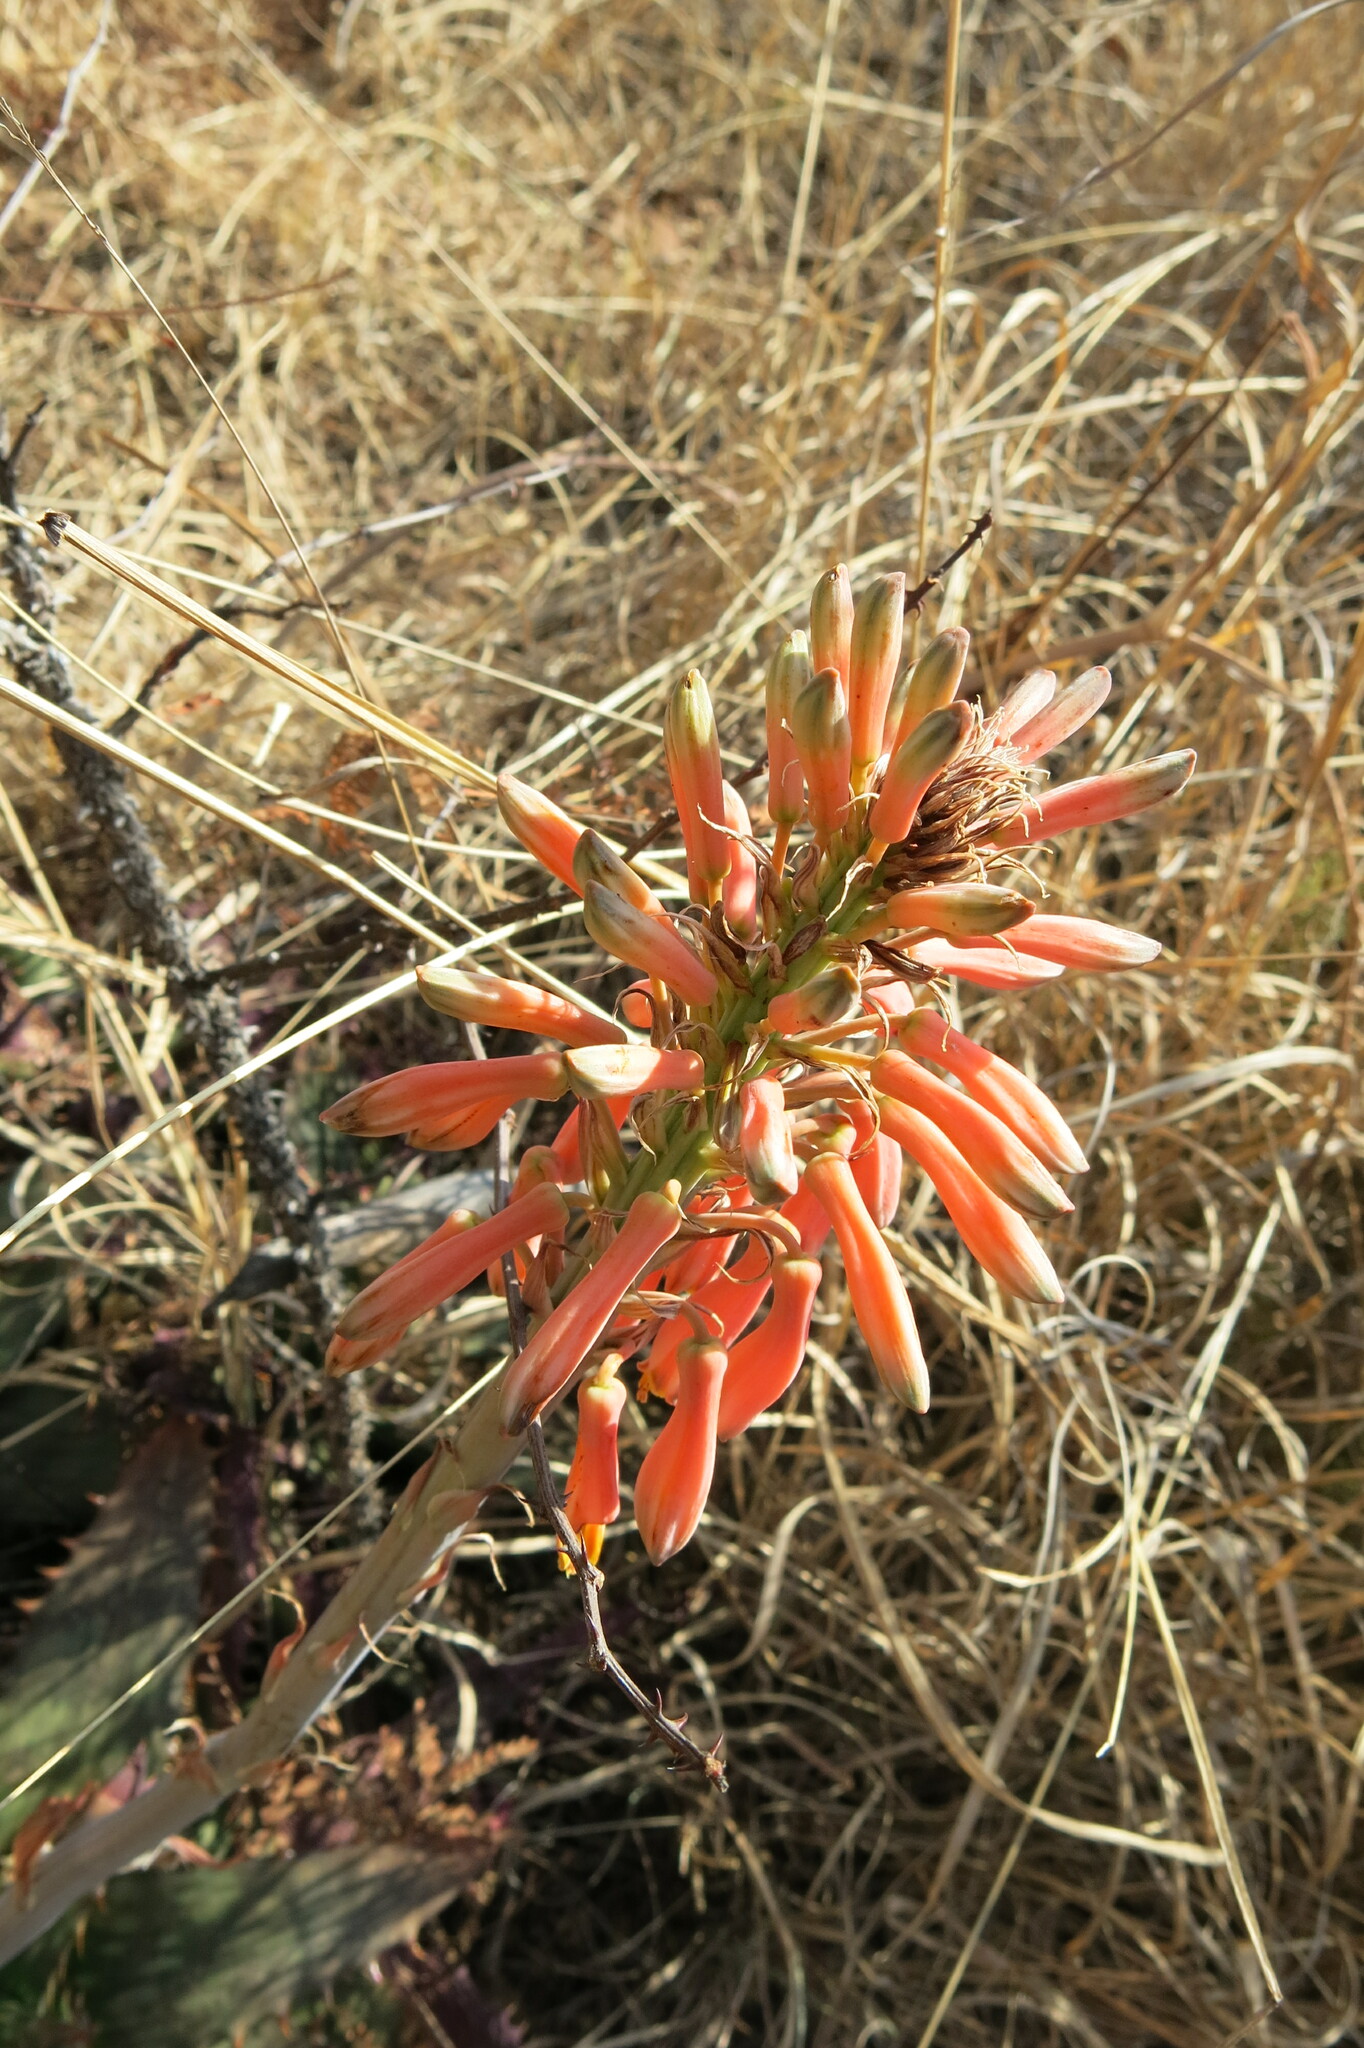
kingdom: Plantae
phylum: Tracheophyta
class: Liliopsida
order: Asparagales
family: Asphodelaceae
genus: Aloe
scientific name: Aloe davyana
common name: Spotted aloe
